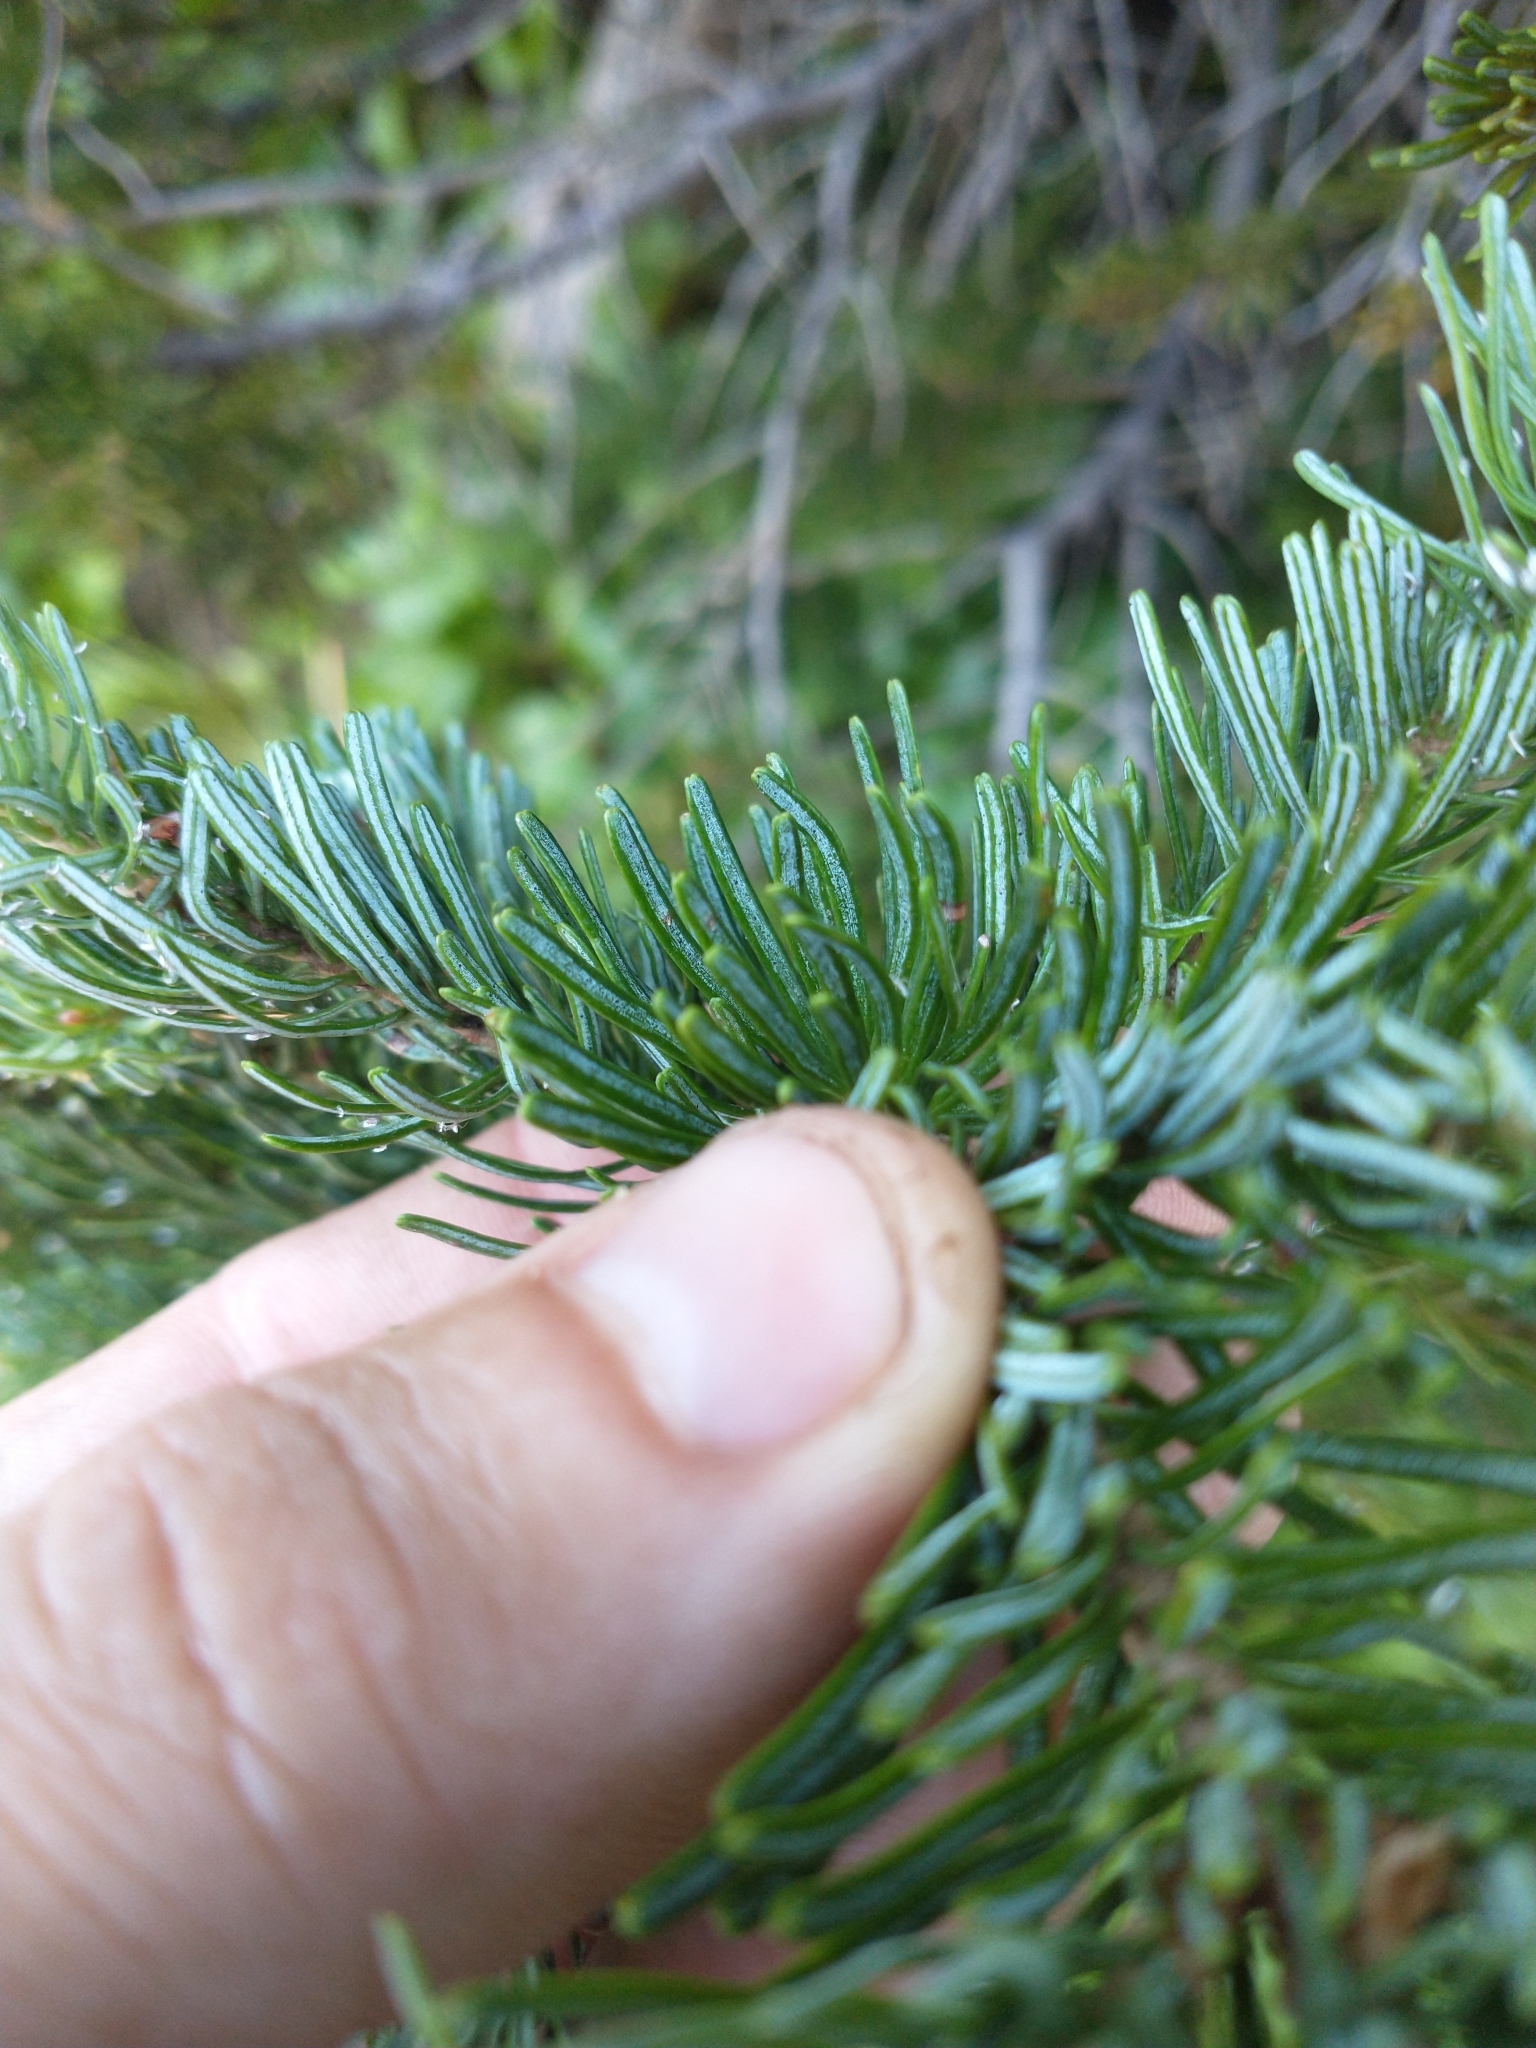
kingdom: Plantae
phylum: Tracheophyta
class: Pinopsida
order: Pinales
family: Pinaceae
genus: Abies
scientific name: Abies lasiocarpa
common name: Subalpine fir
